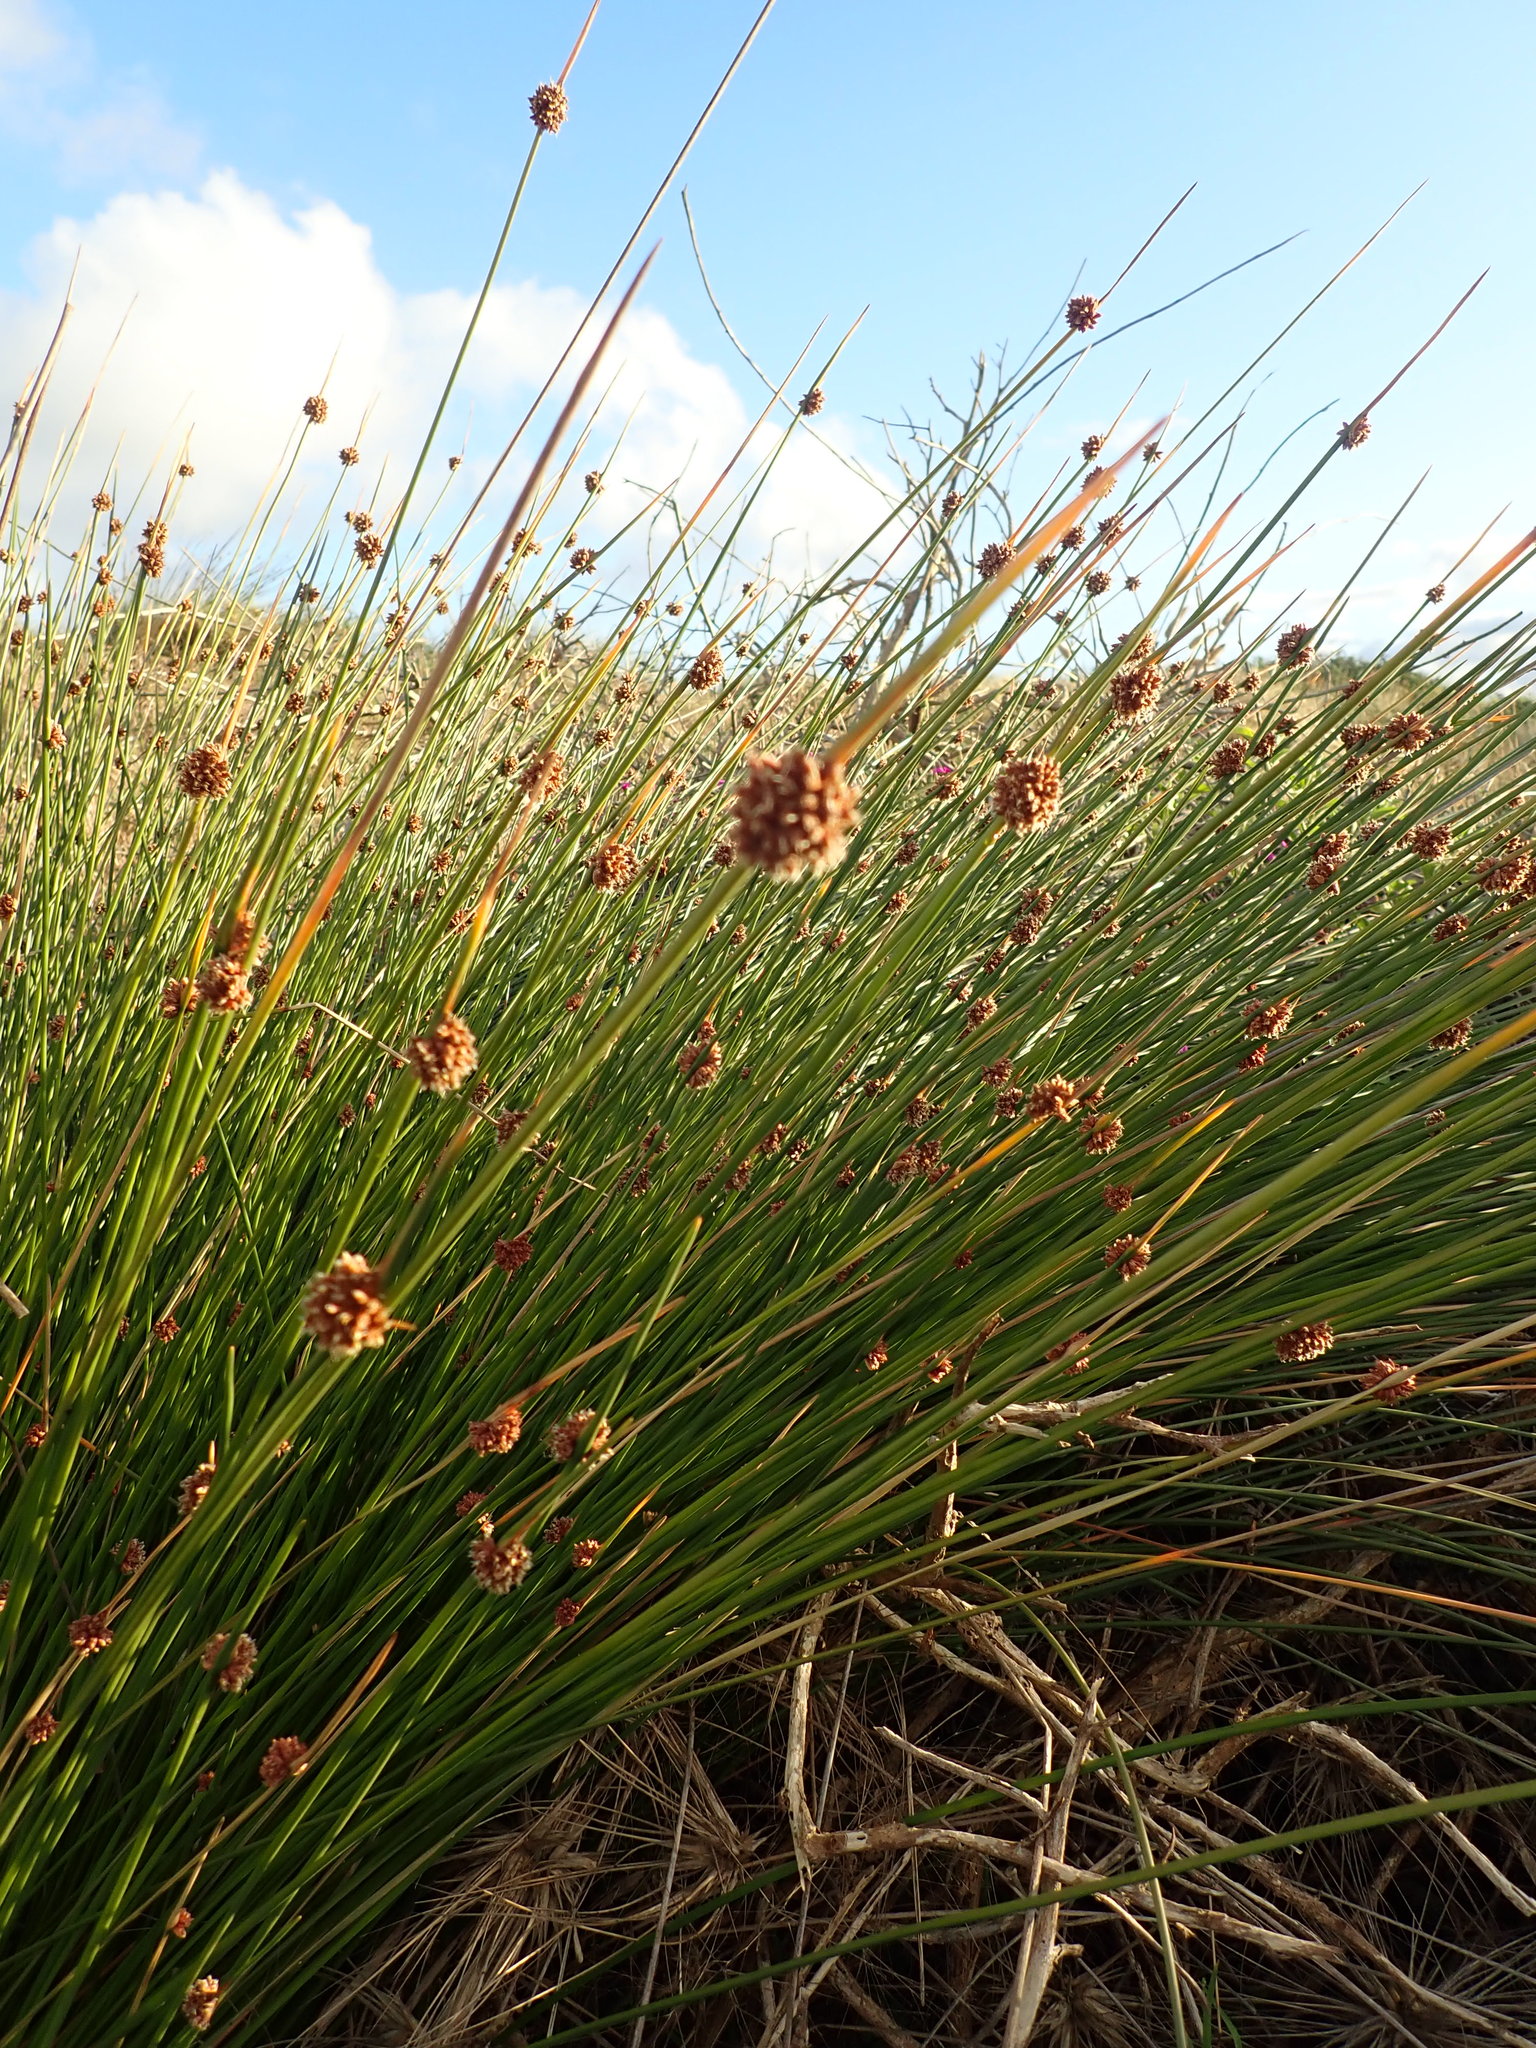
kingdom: Plantae
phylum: Tracheophyta
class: Liliopsida
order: Poales
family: Cyperaceae
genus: Ficinia
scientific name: Ficinia nodosa
